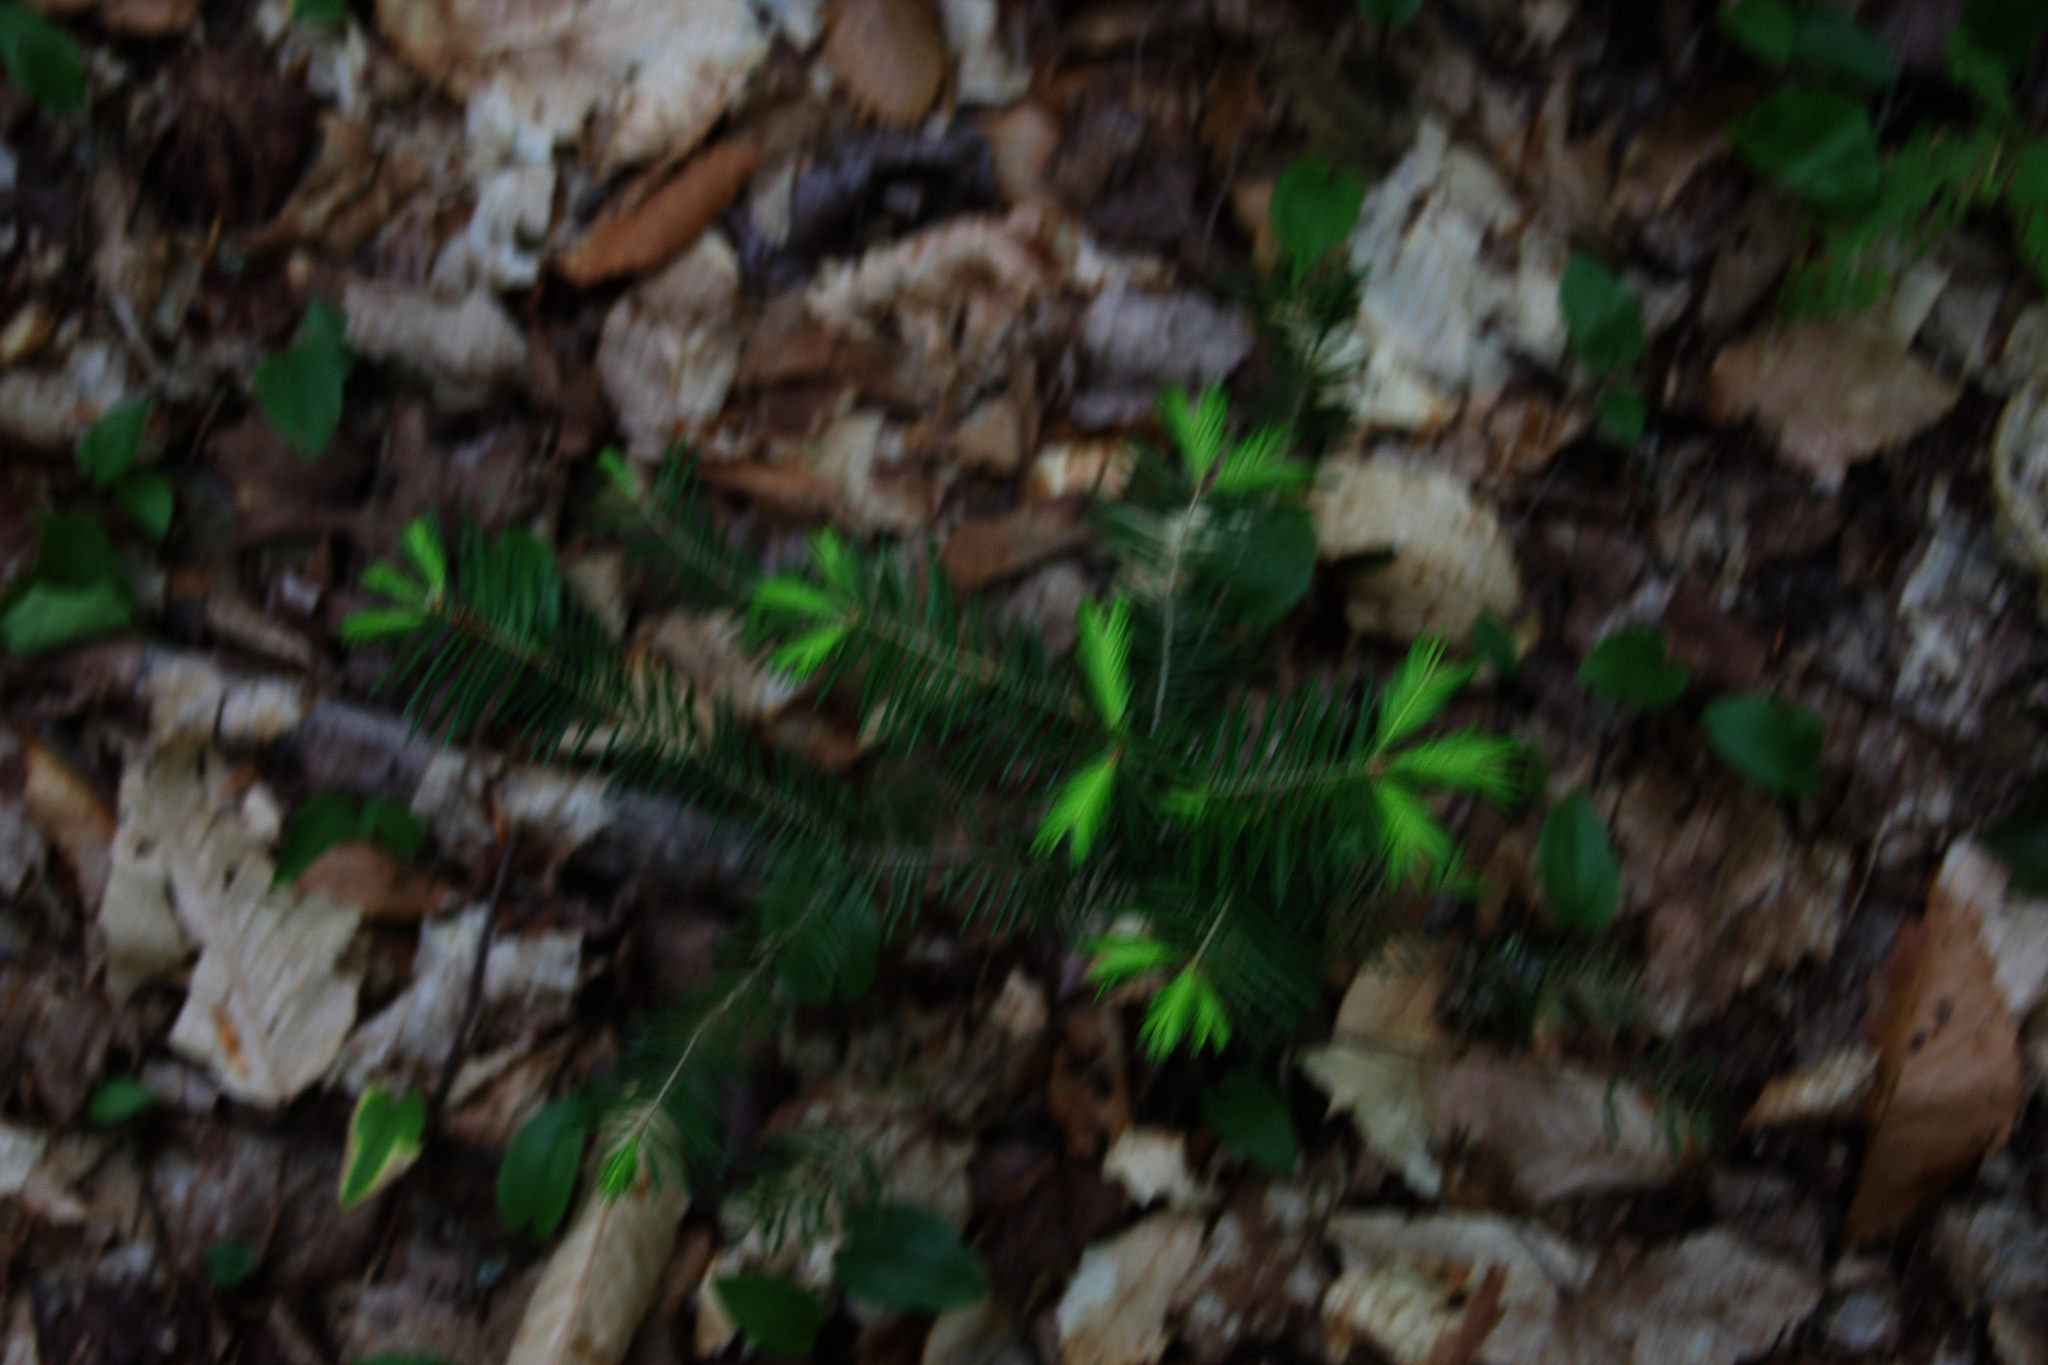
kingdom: Plantae
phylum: Tracheophyta
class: Pinopsida
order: Pinales
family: Pinaceae
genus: Abies
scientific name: Abies balsamea
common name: Balsam fir
